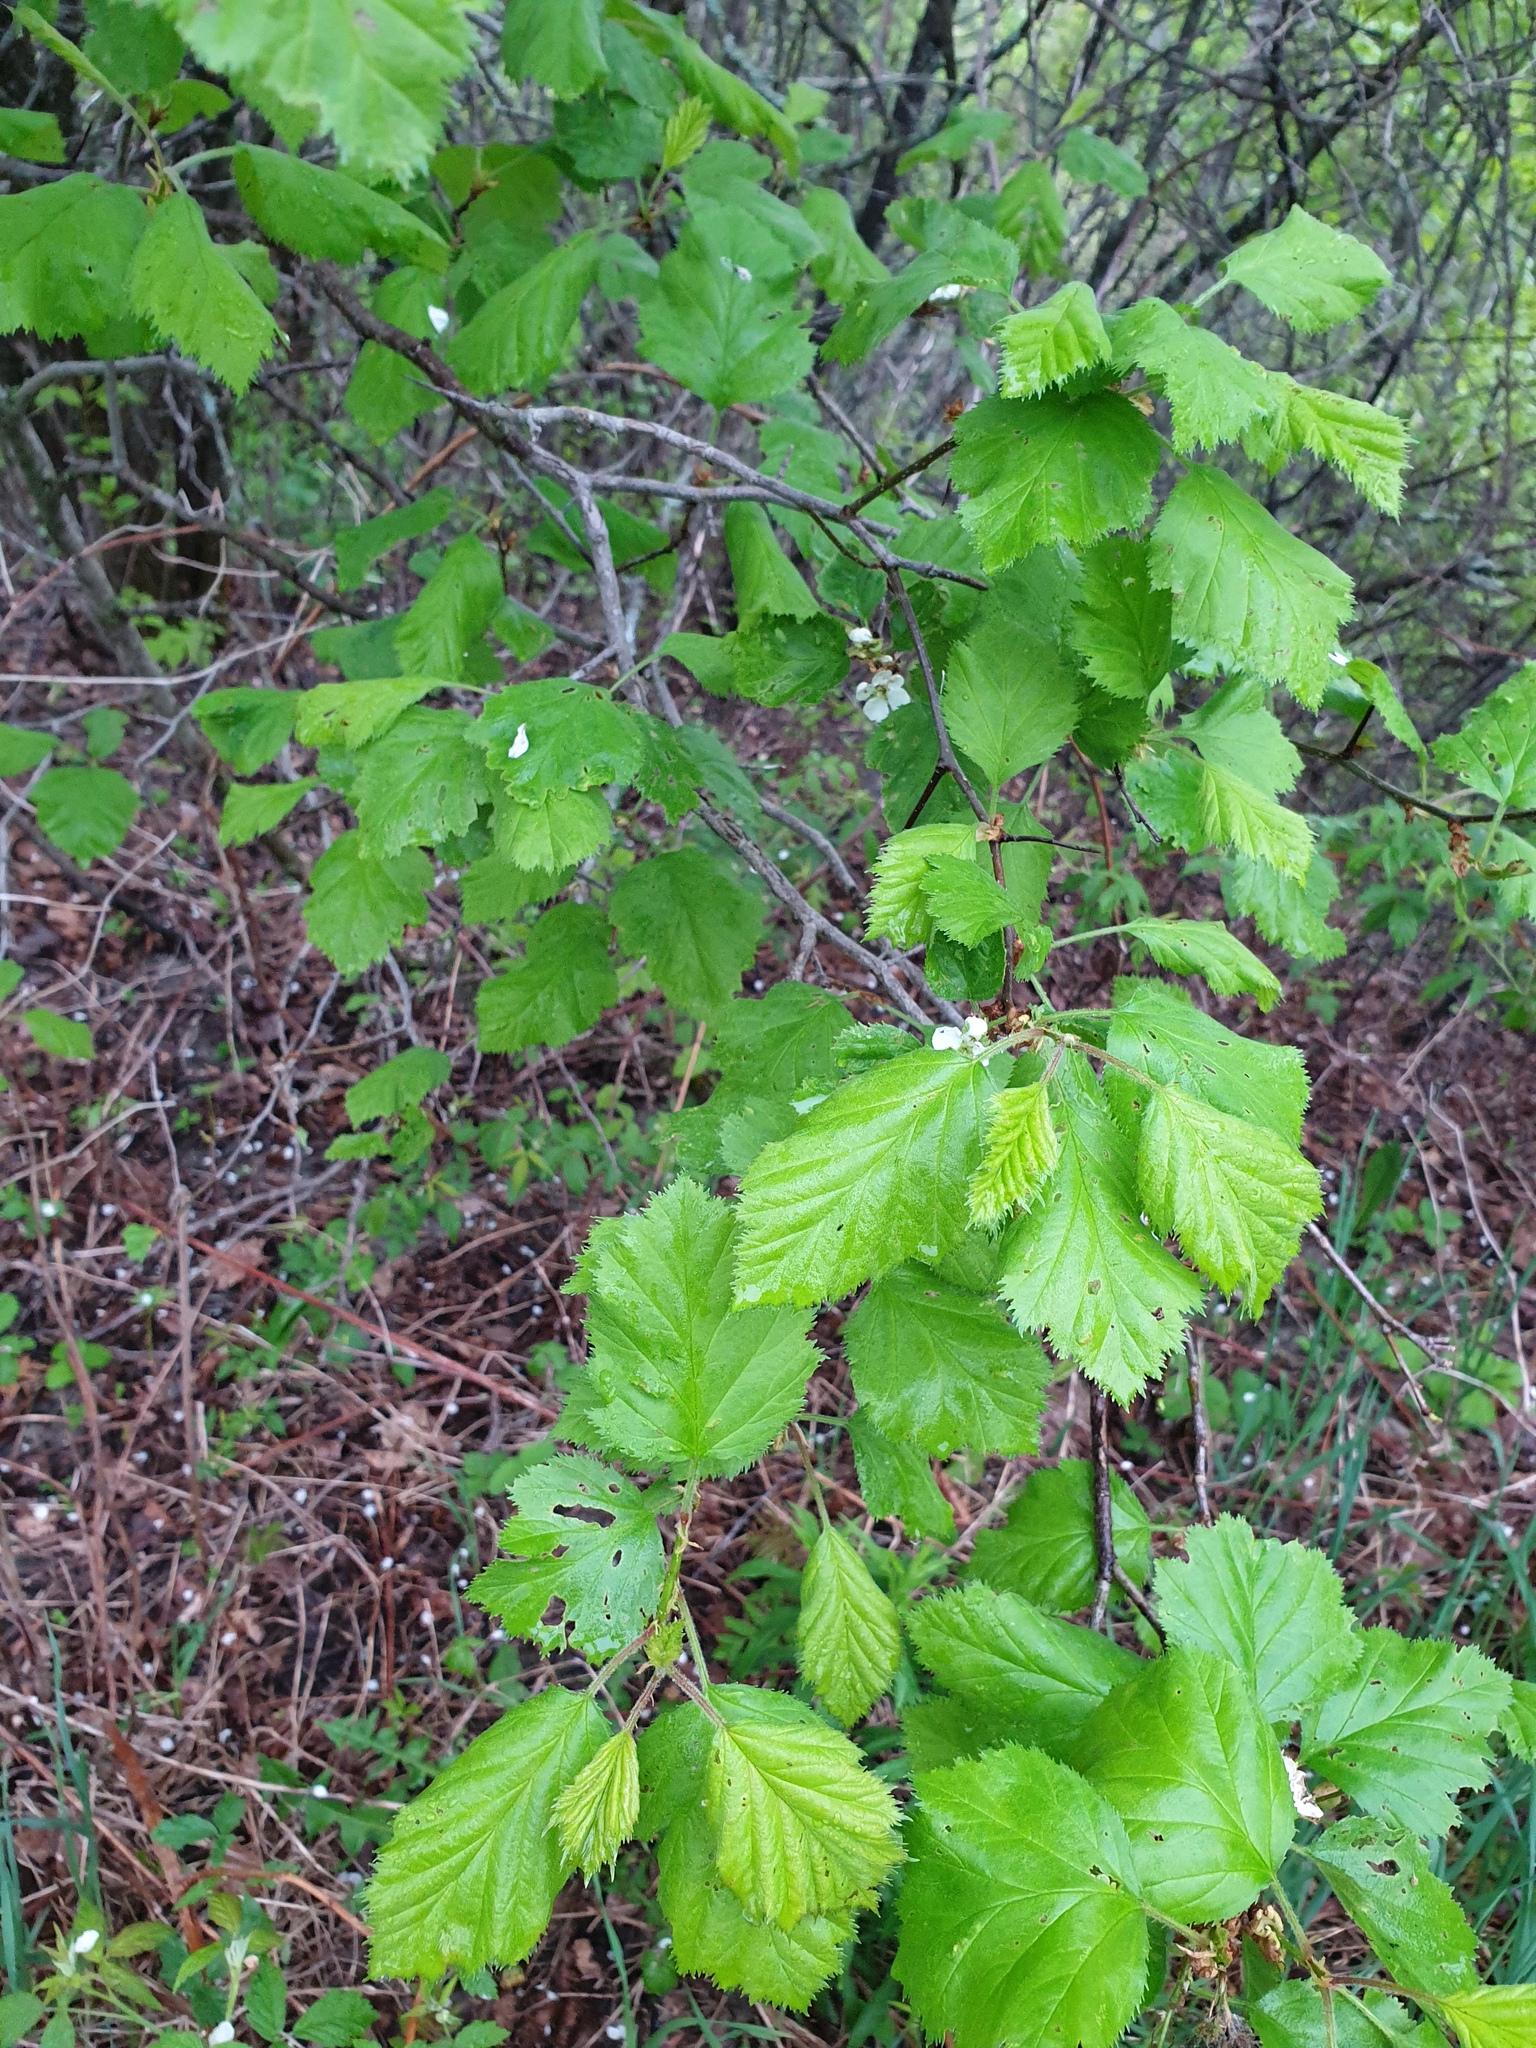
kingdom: Plantae
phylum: Tracheophyta
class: Magnoliopsida
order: Rosales
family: Rosaceae
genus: Crataegus
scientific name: Crataegus submollis
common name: Hairy cockspurthorn
